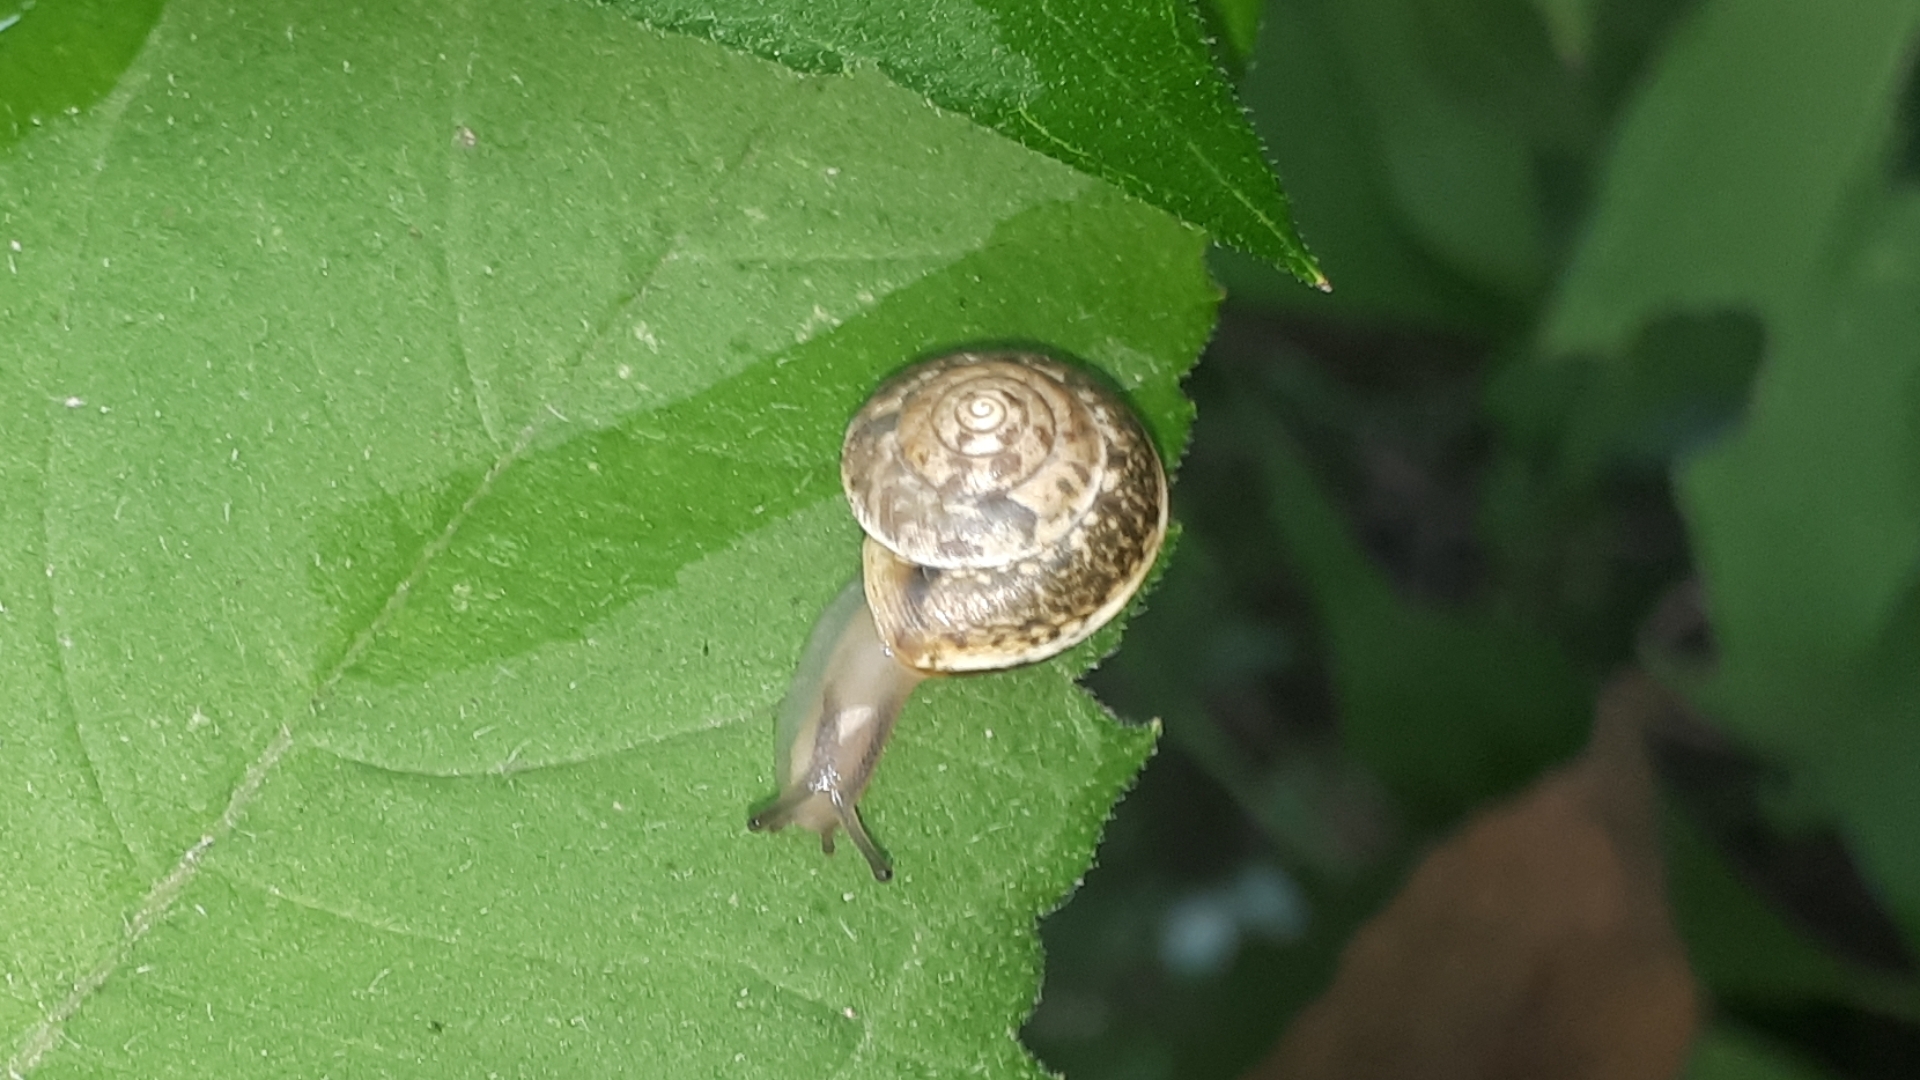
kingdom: Animalia
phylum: Mollusca
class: Gastropoda
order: Stylommatophora
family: Hygromiidae
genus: Hygromia
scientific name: Hygromia cinctella
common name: Girdled snail
